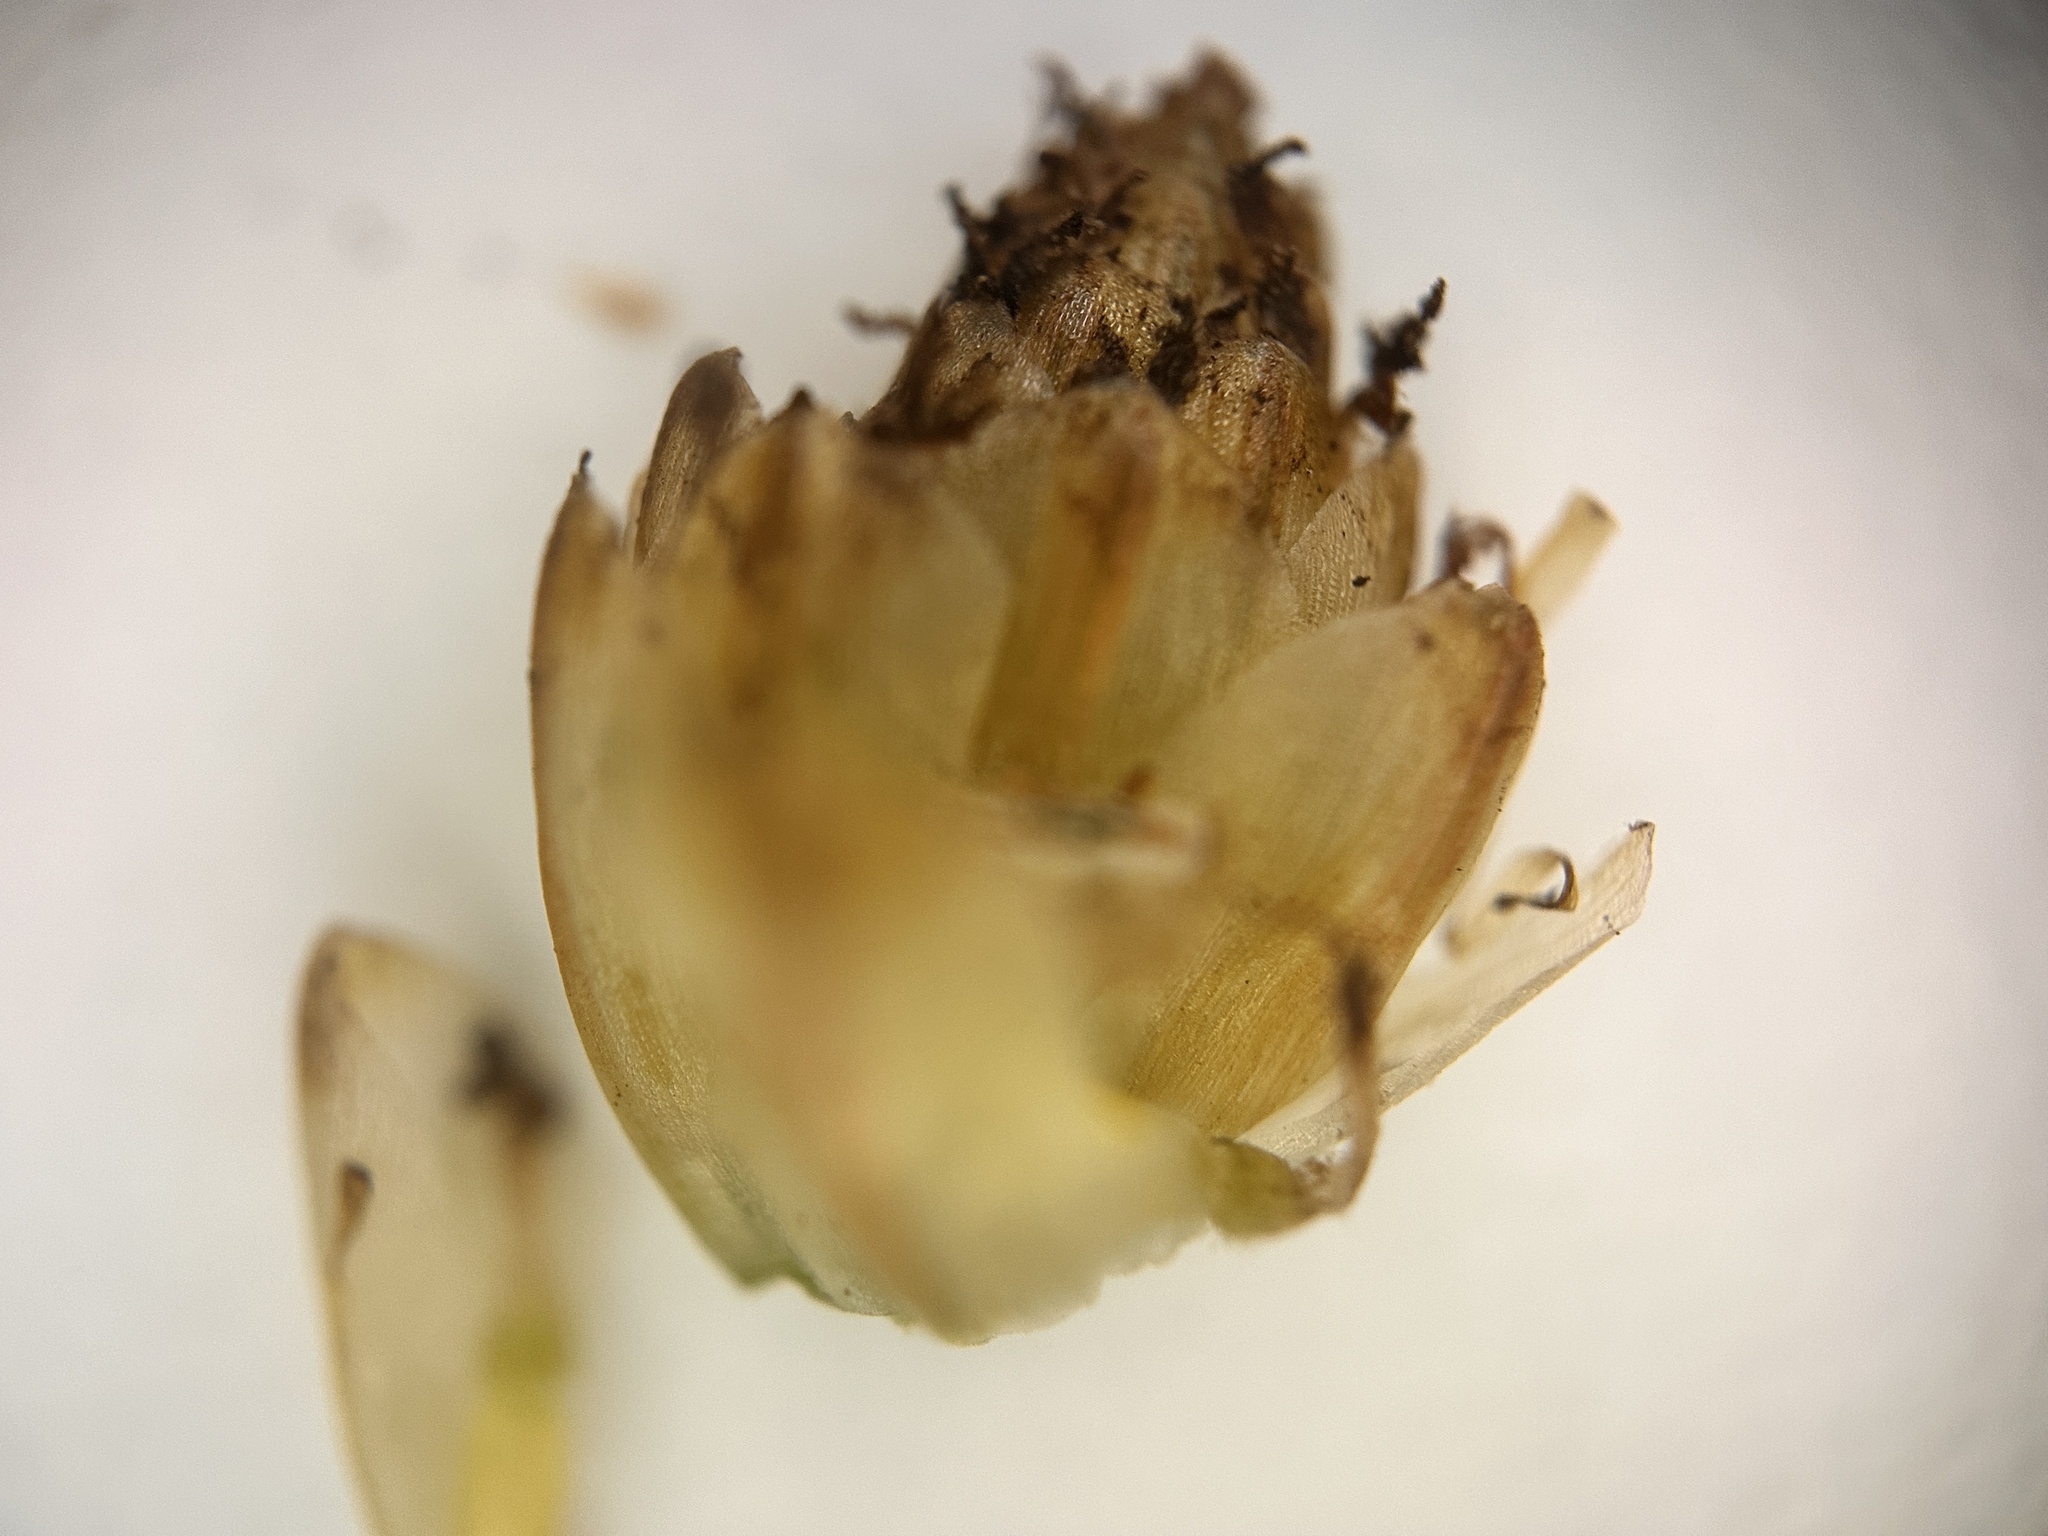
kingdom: Plantae
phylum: Tracheophyta
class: Liliopsida
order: Poales
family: Cyperaceae
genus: Fimbristylis
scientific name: Fimbristylis tetragona
